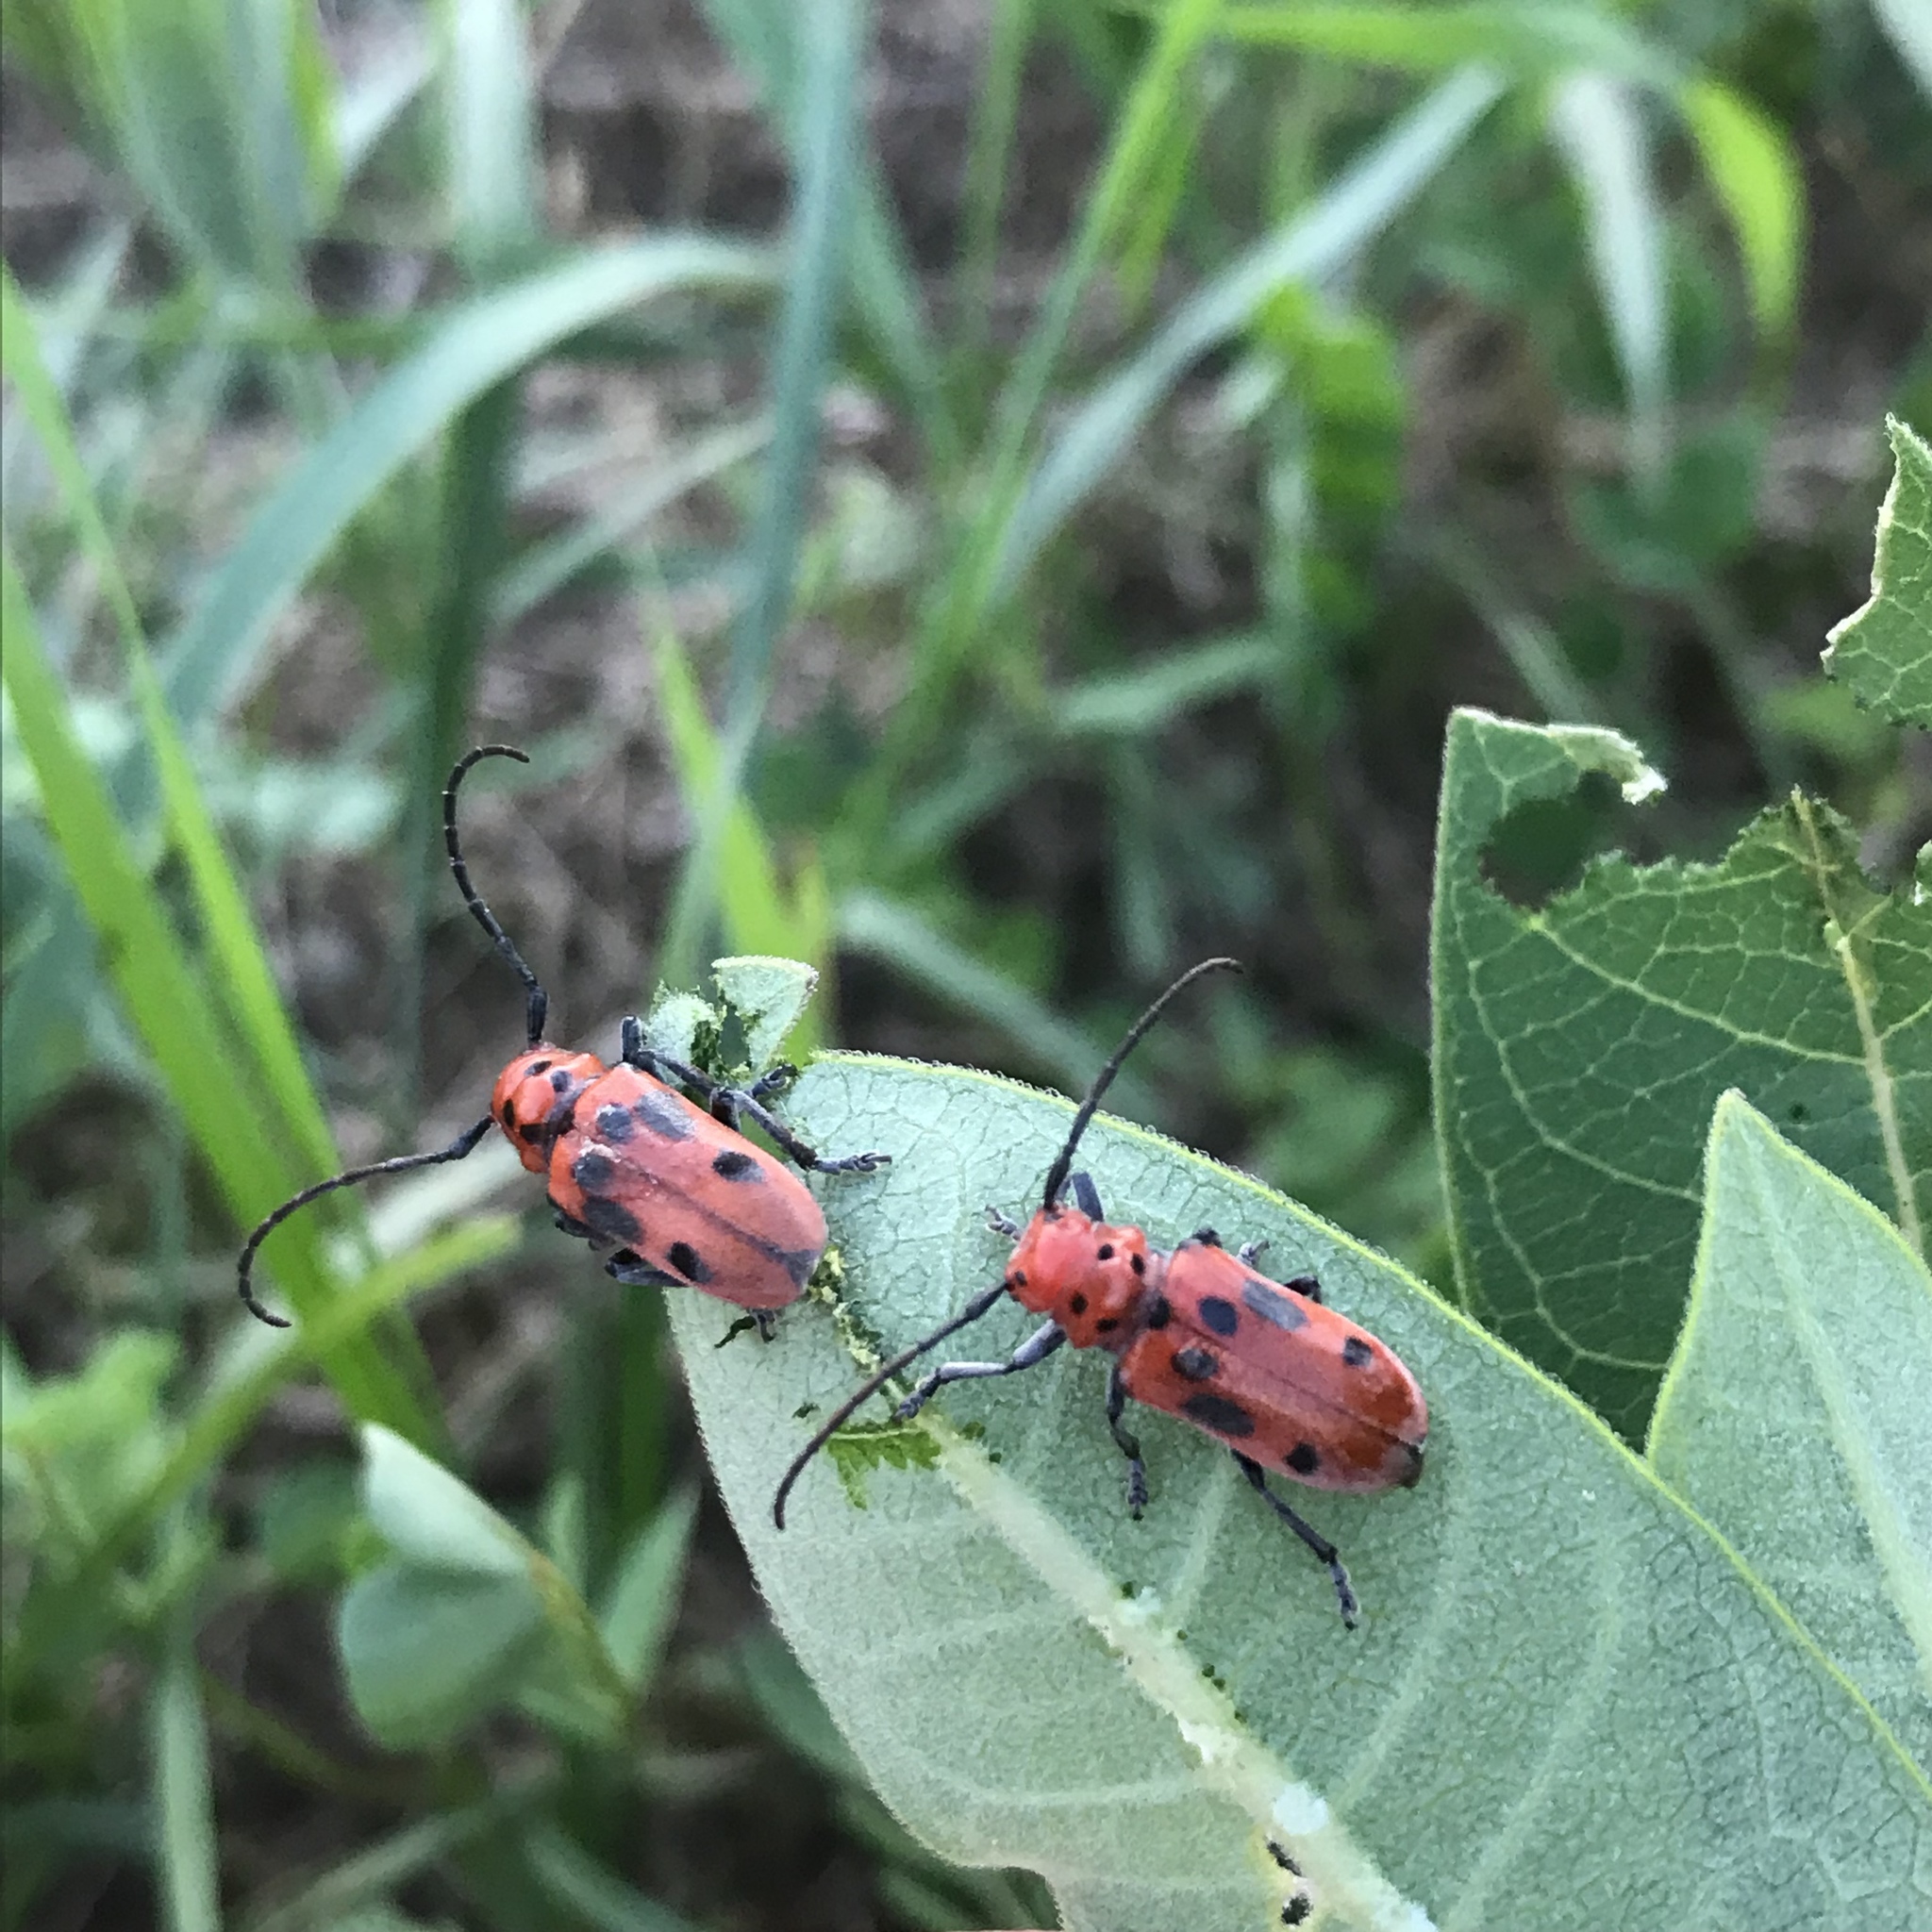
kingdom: Animalia
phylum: Arthropoda
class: Insecta
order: Coleoptera
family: Cerambycidae
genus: Tetraopes
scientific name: Tetraopes tetrophthalmus
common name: Red milkweed beetle
